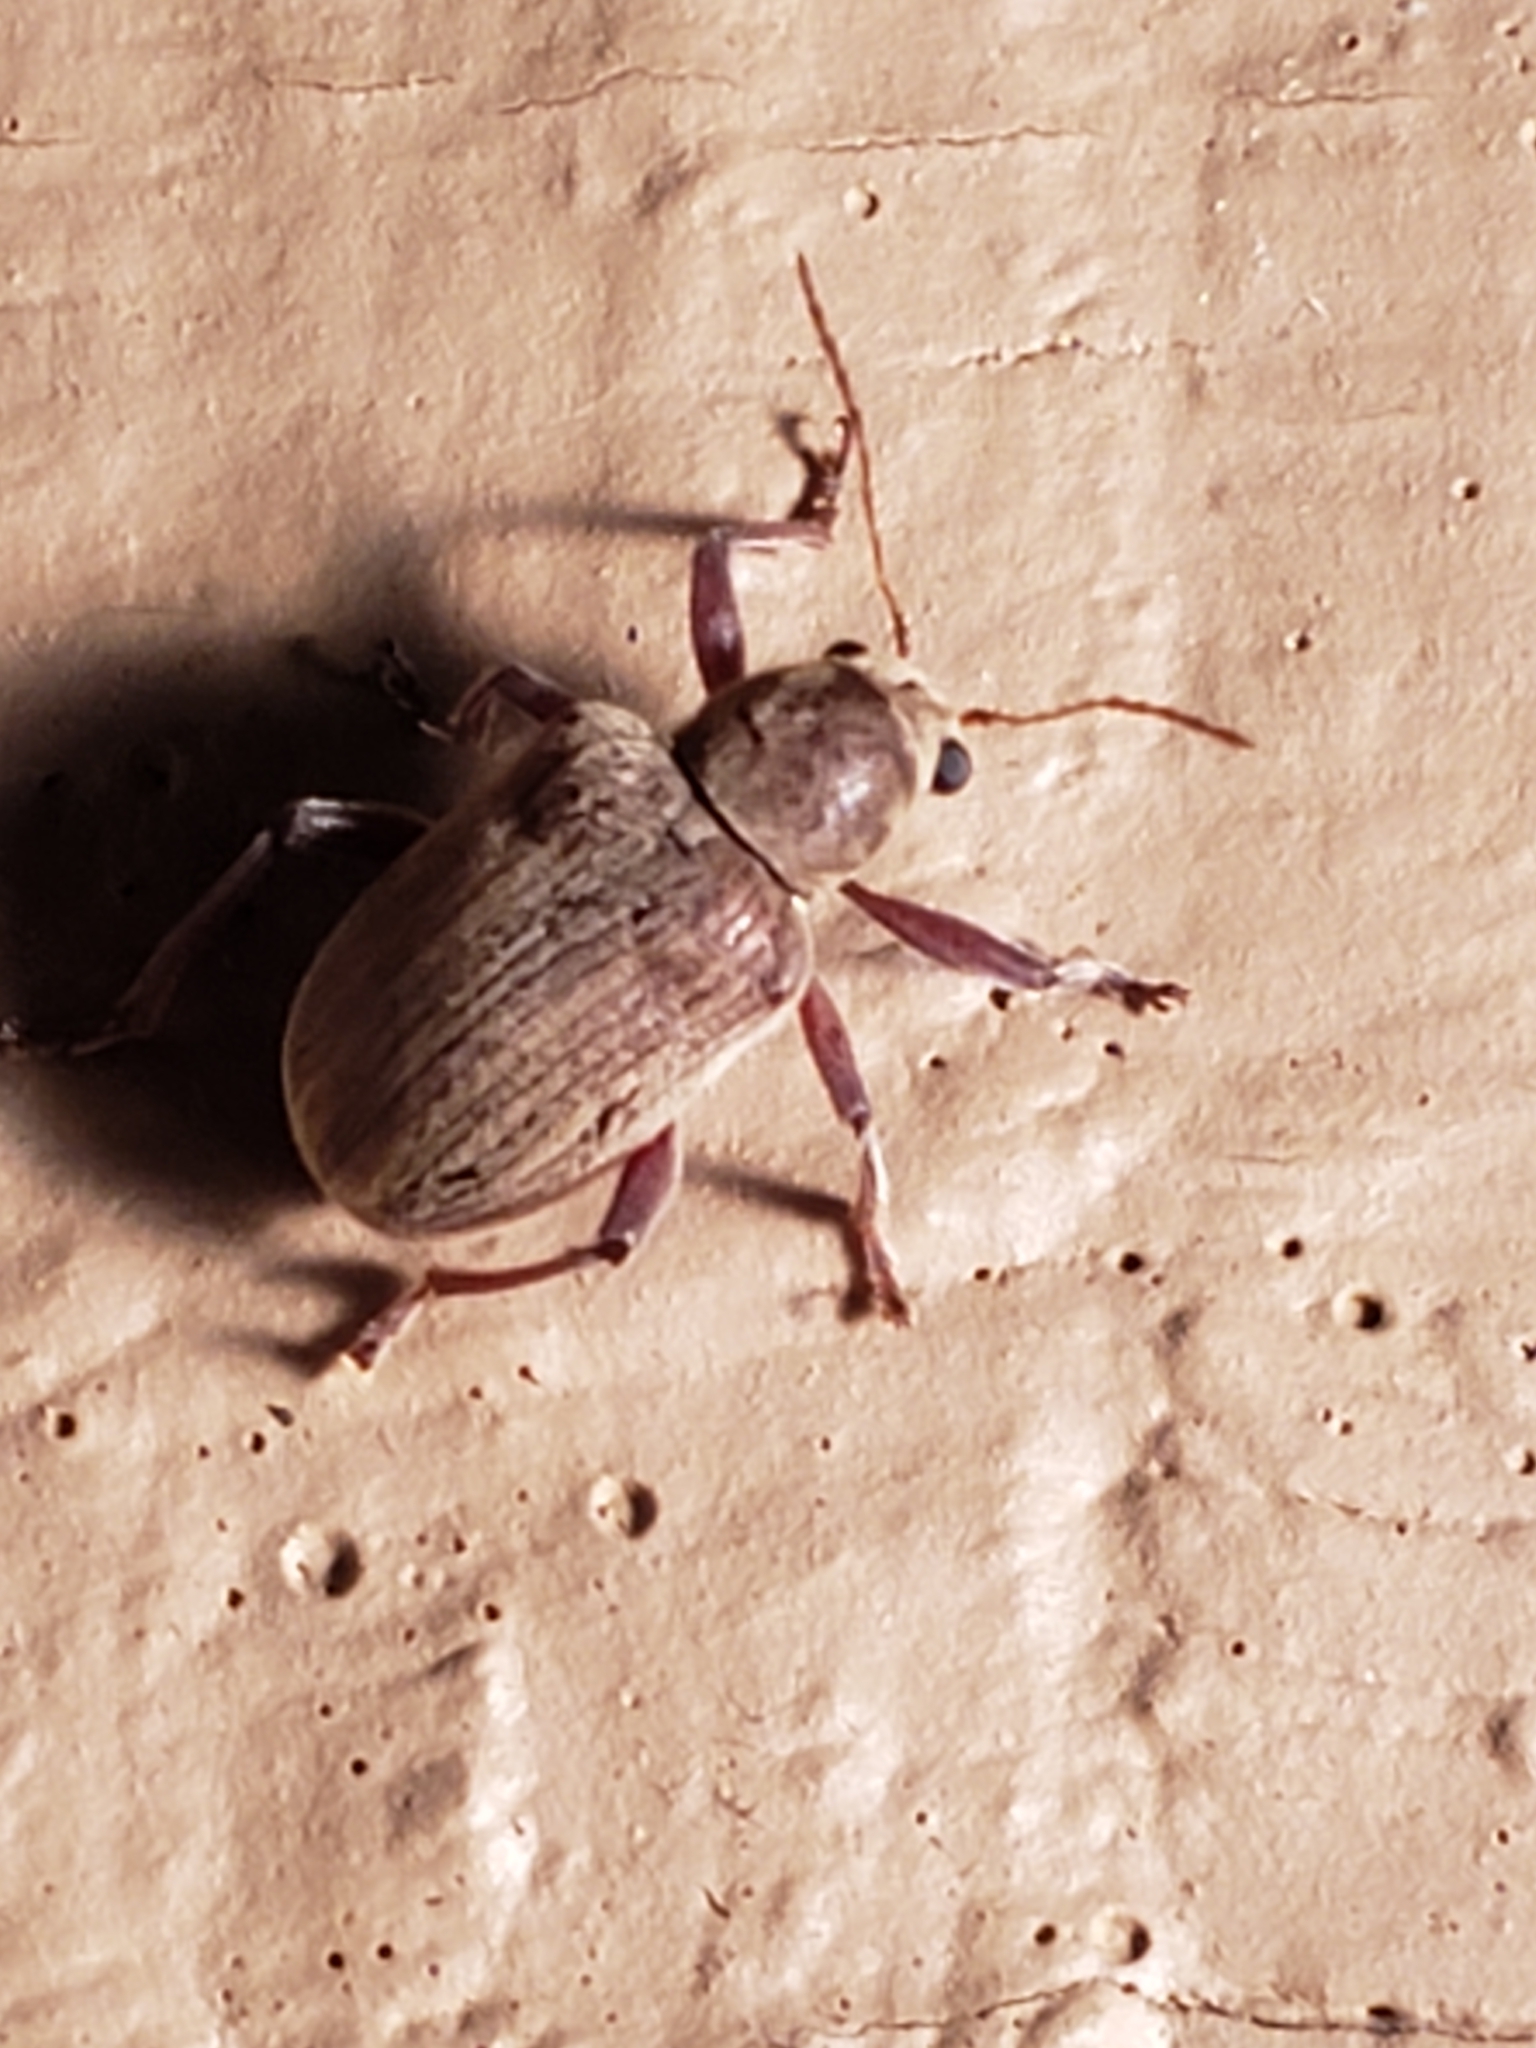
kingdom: Animalia
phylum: Arthropoda
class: Insecta
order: Coleoptera
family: Chrysomelidae
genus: Neofidia
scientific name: Neofidia
